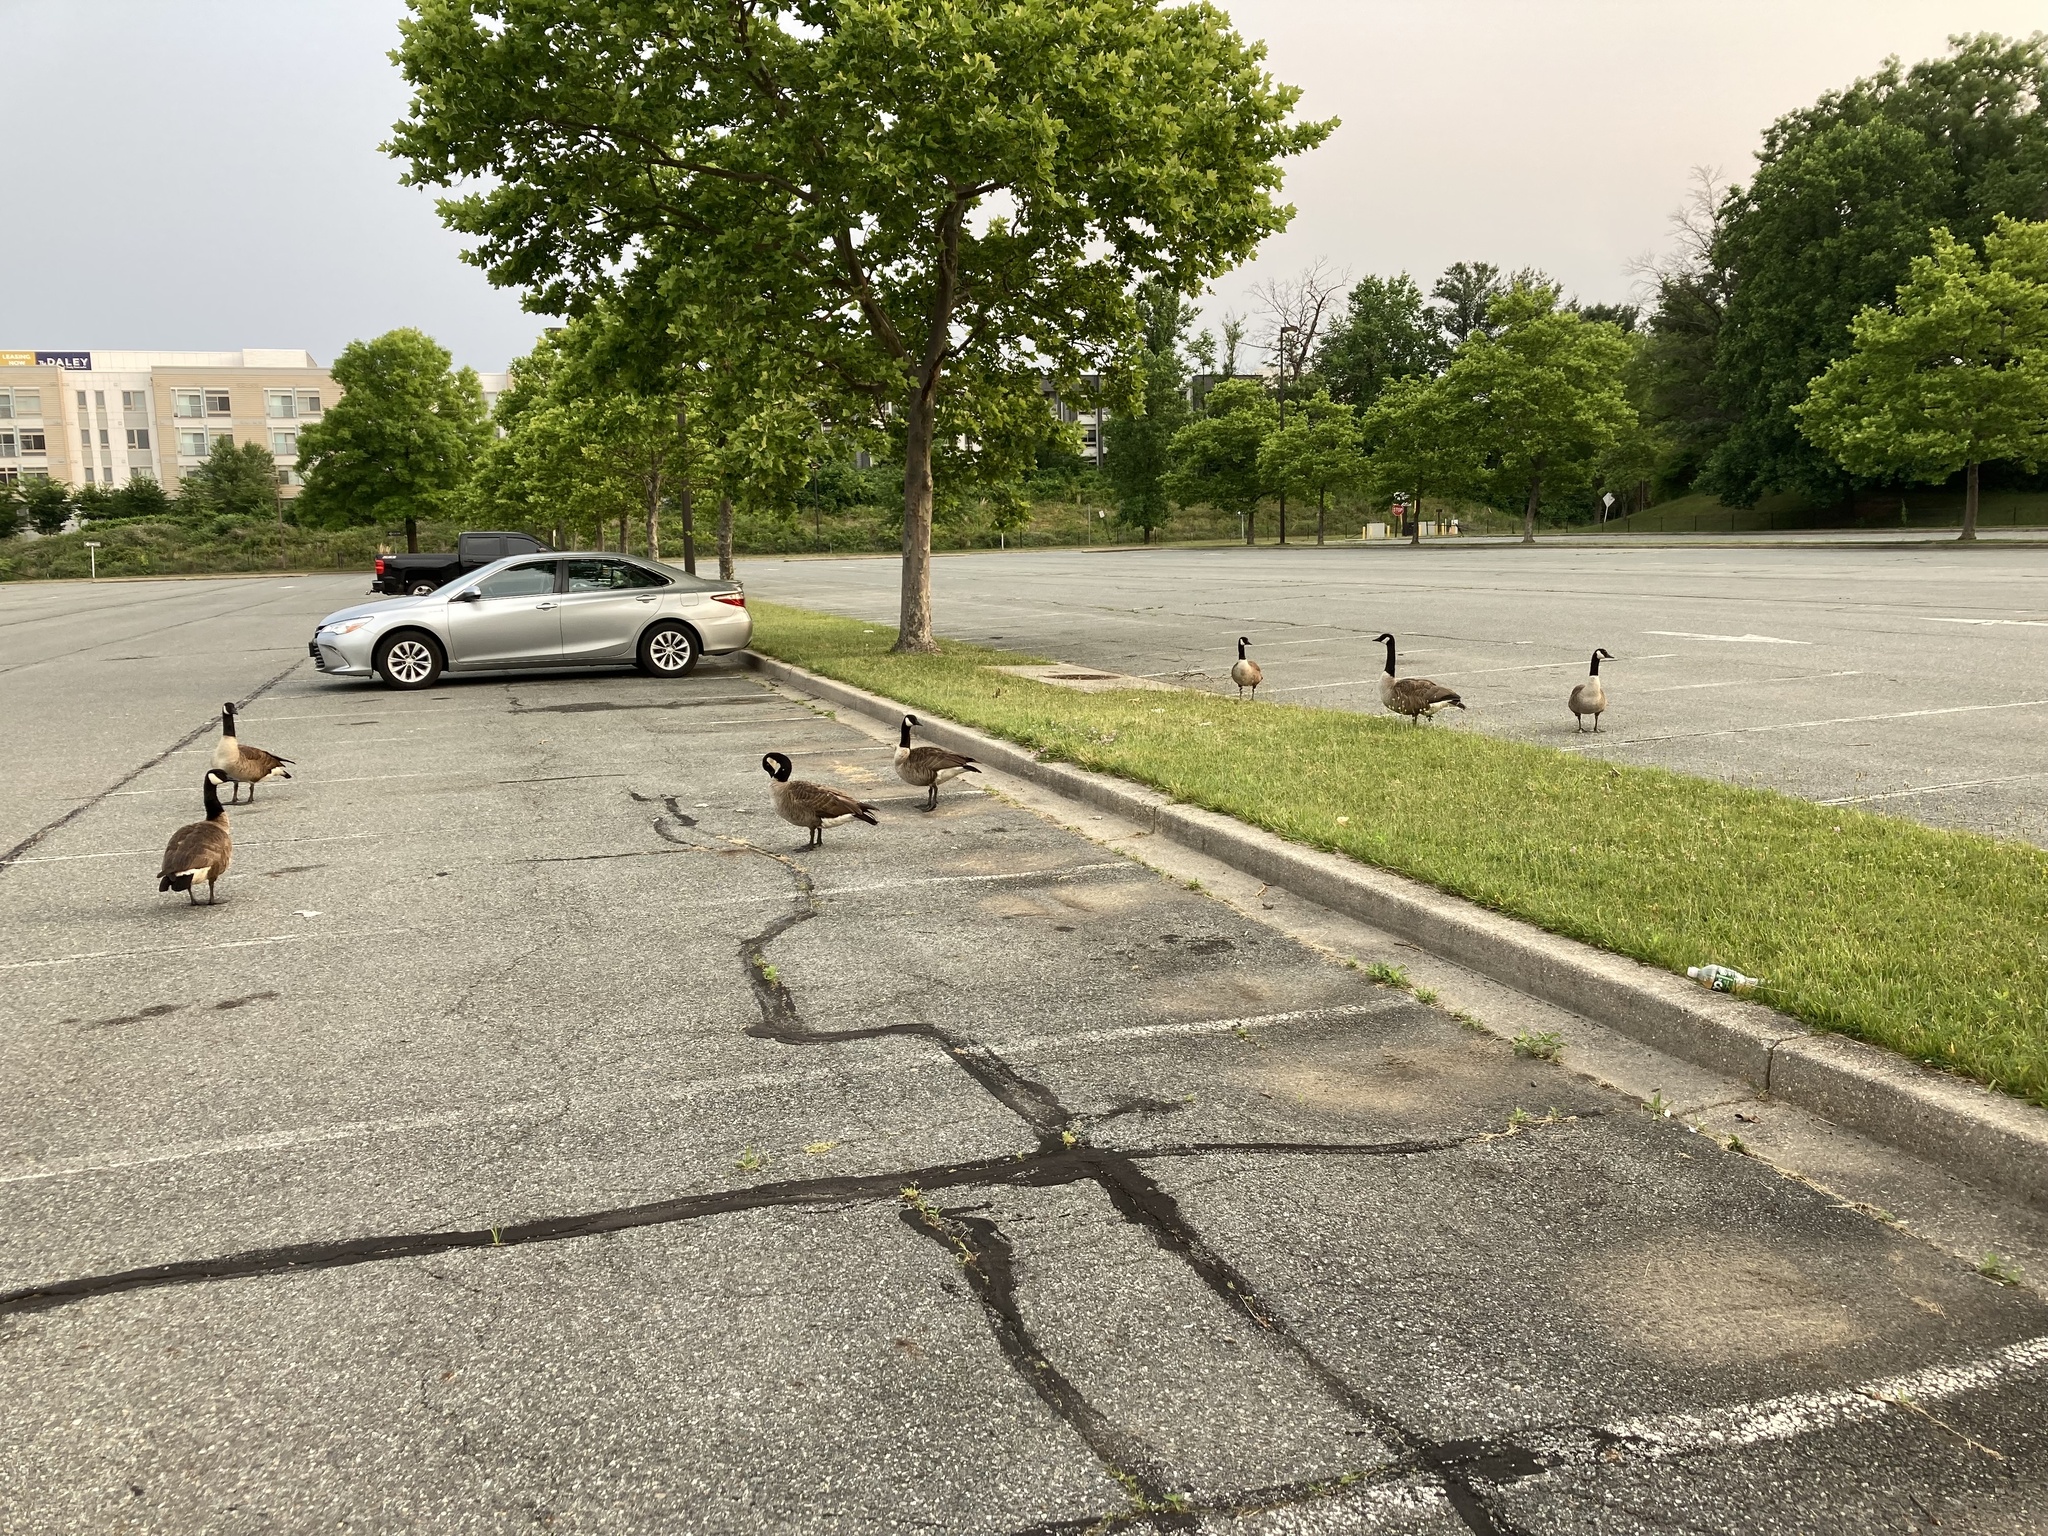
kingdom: Animalia
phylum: Chordata
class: Aves
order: Anseriformes
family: Anatidae
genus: Branta
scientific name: Branta canadensis
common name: Canada goose
